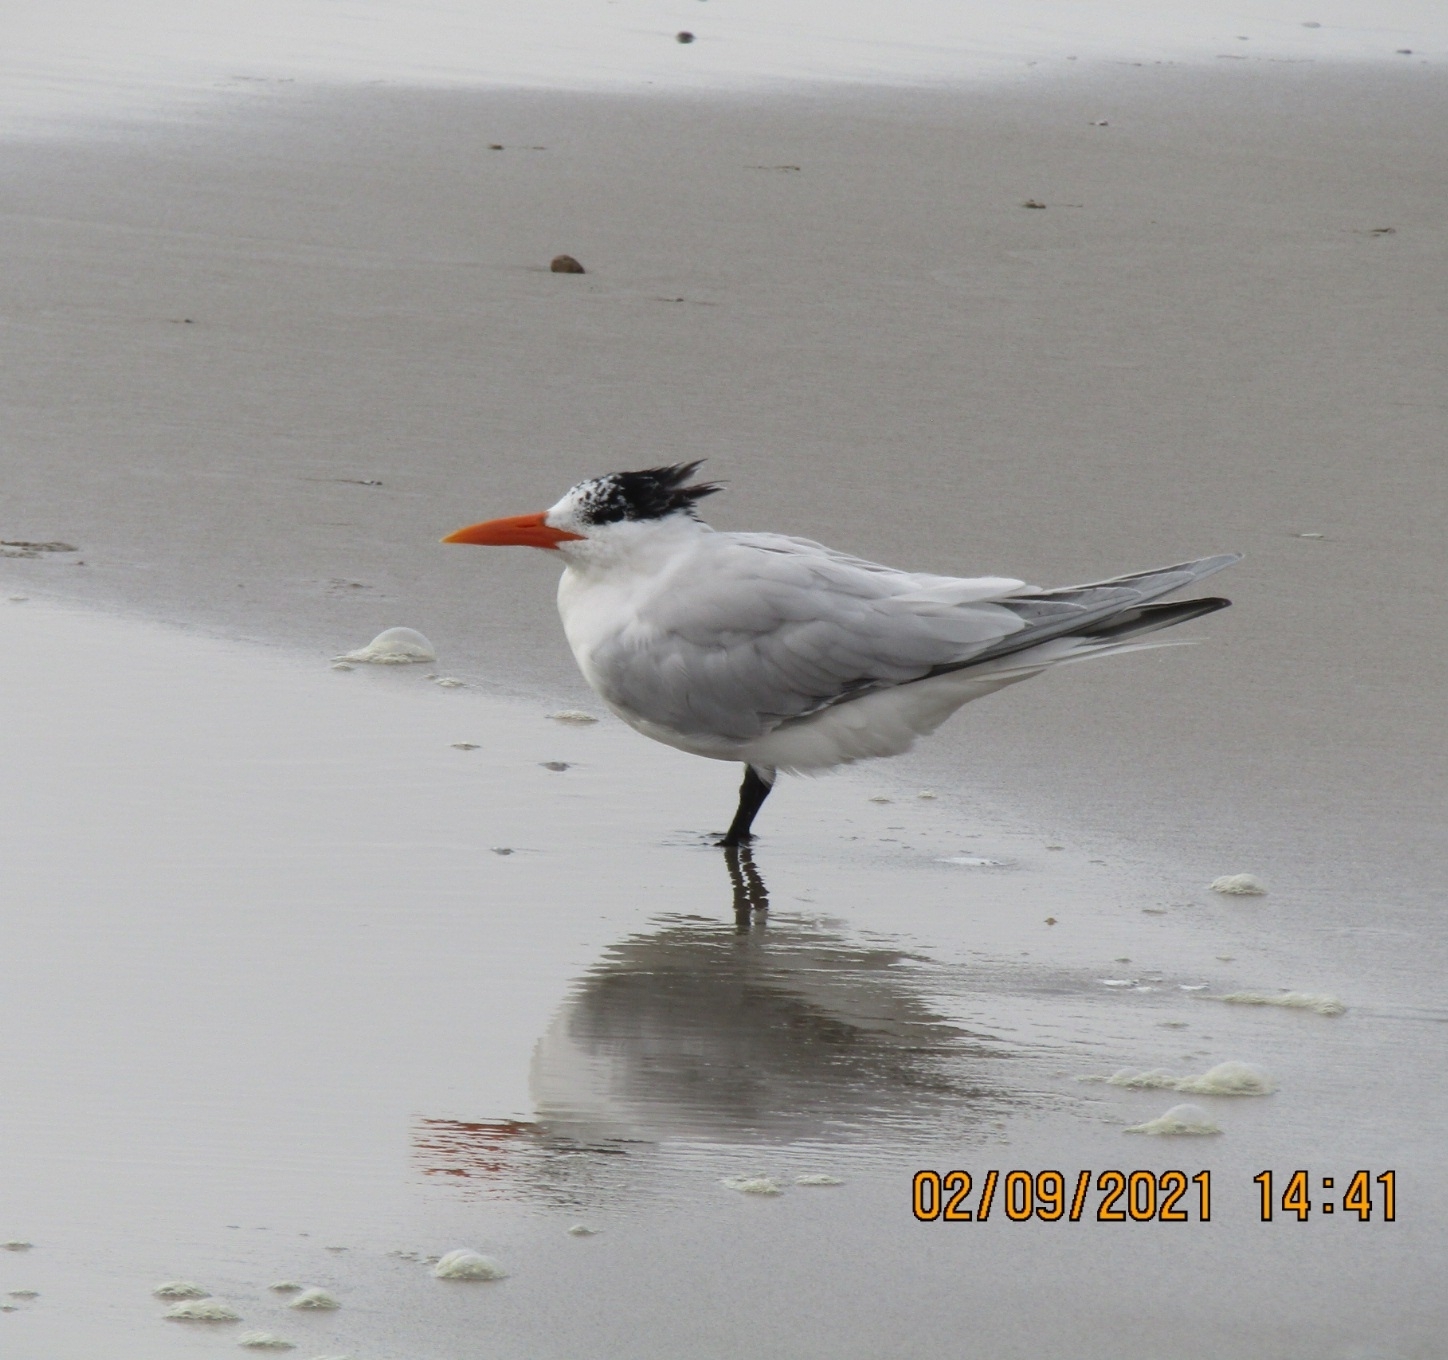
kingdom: Animalia
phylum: Chordata
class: Aves
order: Charadriiformes
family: Laridae
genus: Thalasseus
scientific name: Thalasseus maximus
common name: Royal tern
